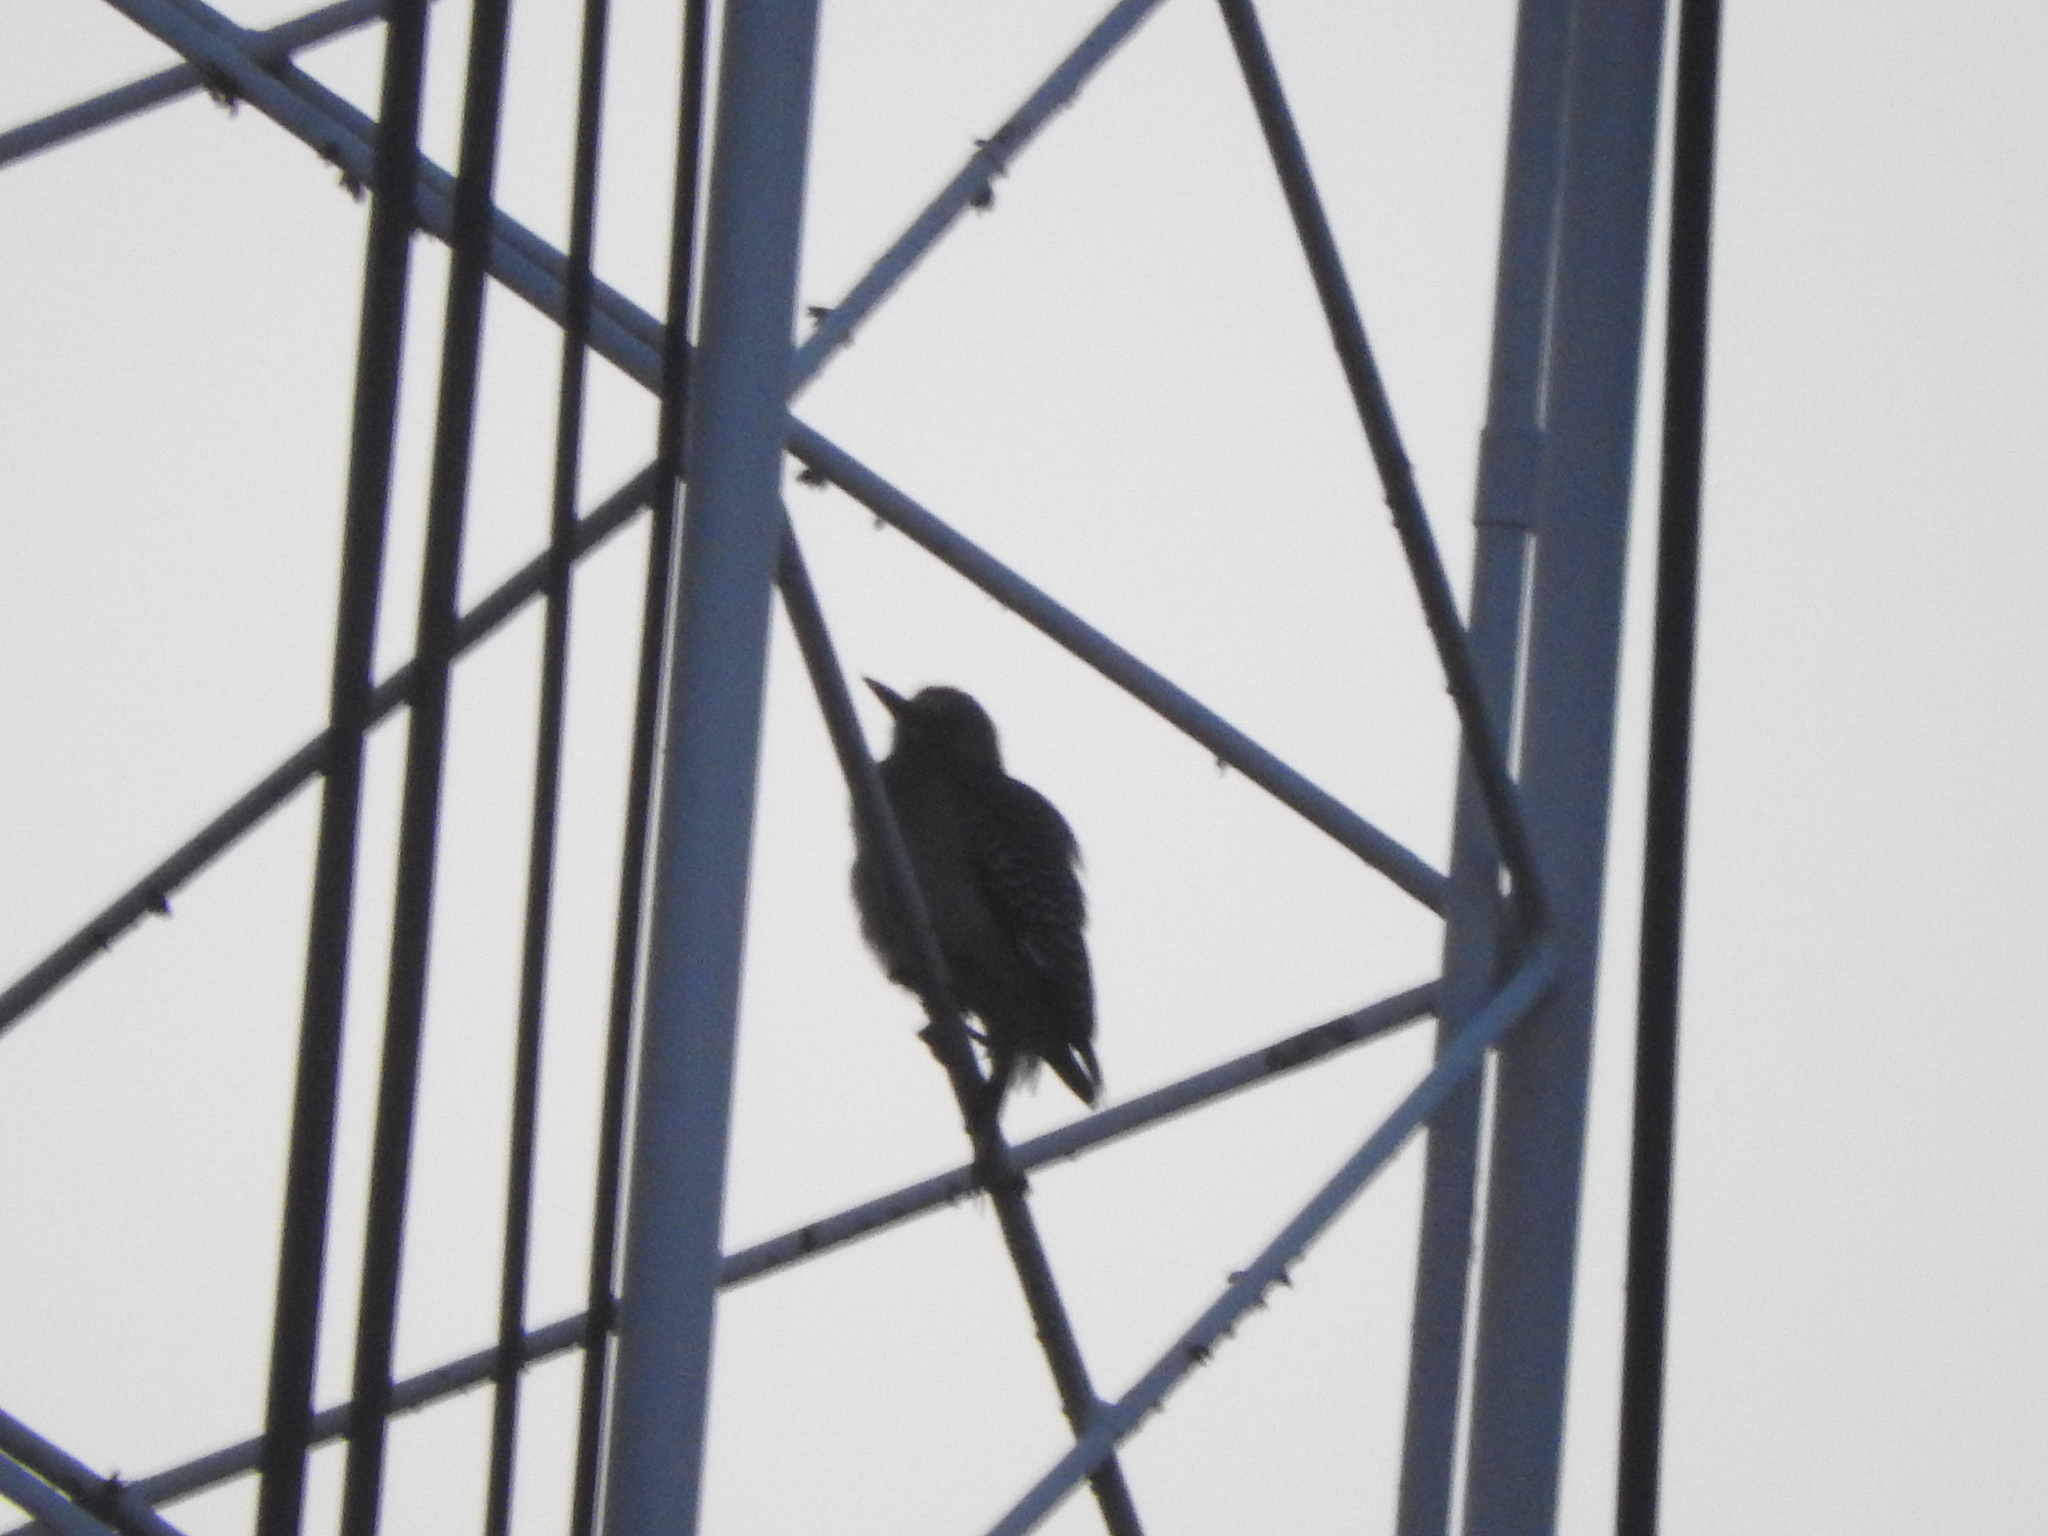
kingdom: Animalia
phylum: Chordata
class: Aves
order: Piciformes
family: Picidae
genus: Melanerpes
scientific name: Melanerpes aurifrons
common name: Golden-fronted woodpecker
